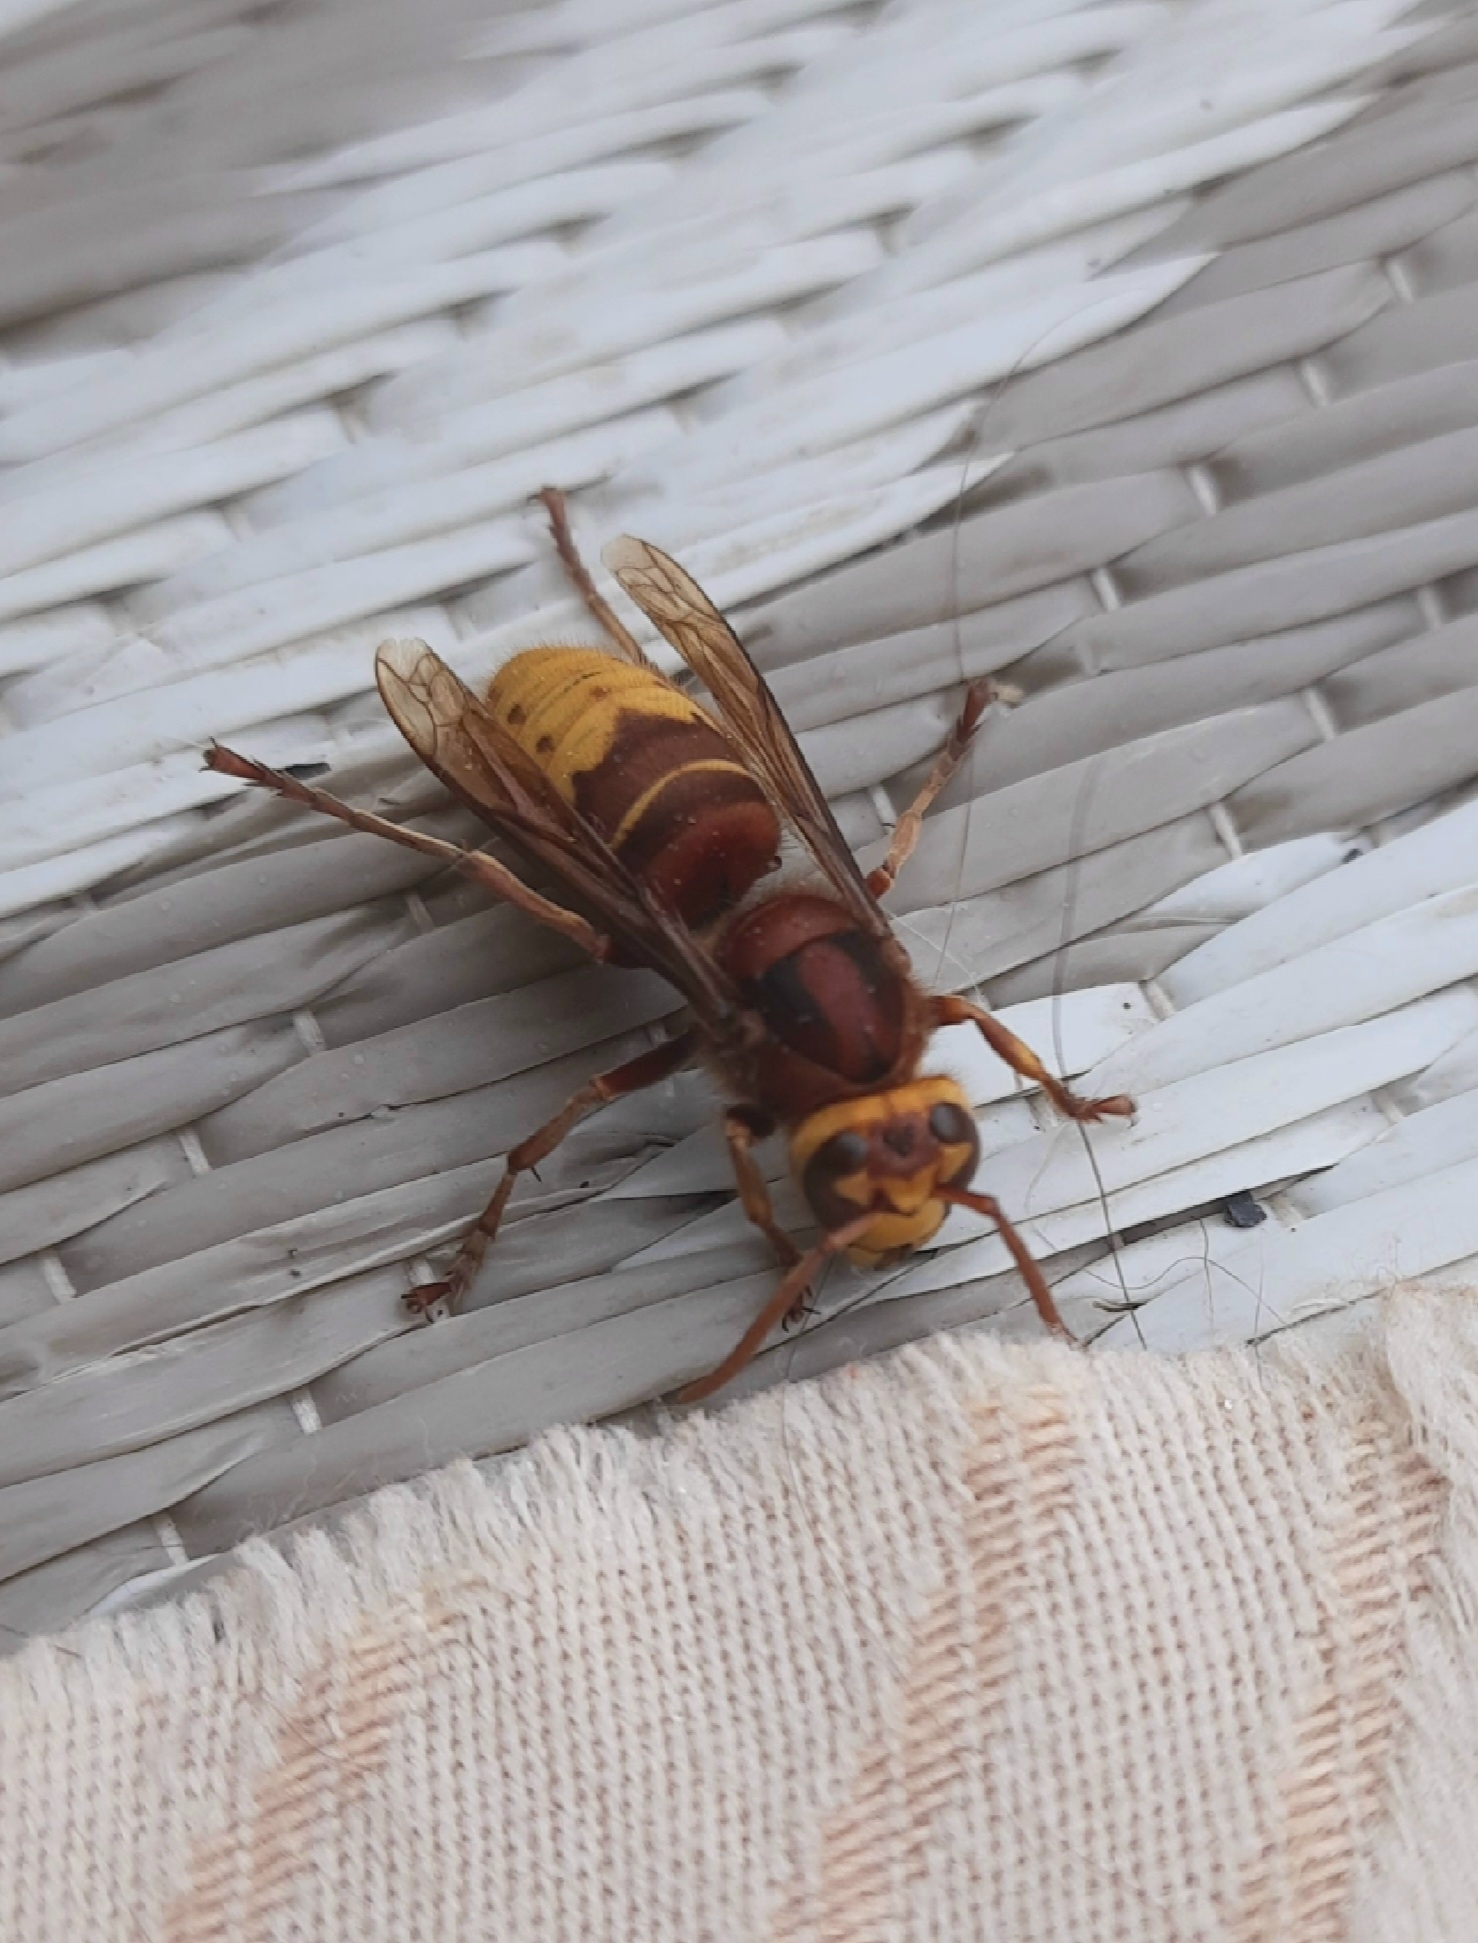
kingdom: Animalia
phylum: Arthropoda
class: Insecta
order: Hymenoptera
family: Vespidae
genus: Vespa
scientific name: Vespa crabro
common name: Hornet
